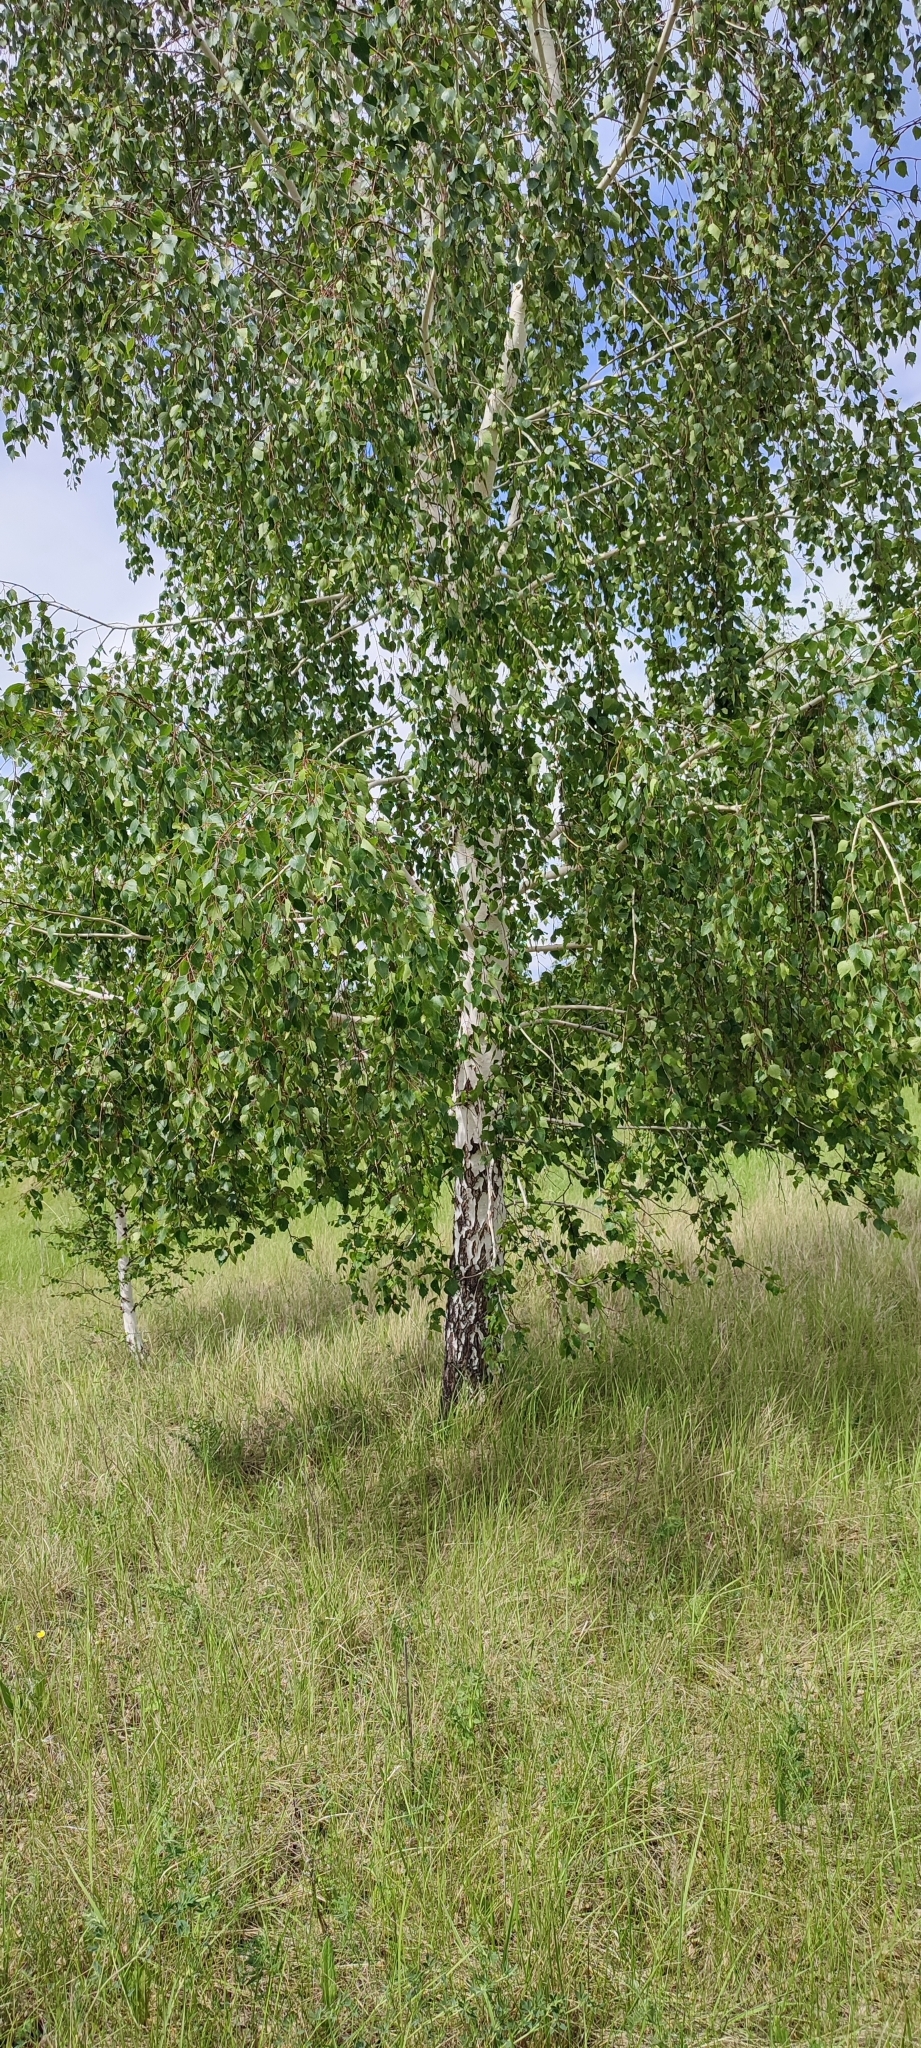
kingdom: Plantae
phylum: Tracheophyta
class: Magnoliopsida
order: Fagales
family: Betulaceae
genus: Betula
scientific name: Betula pendula
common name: Silver birch
